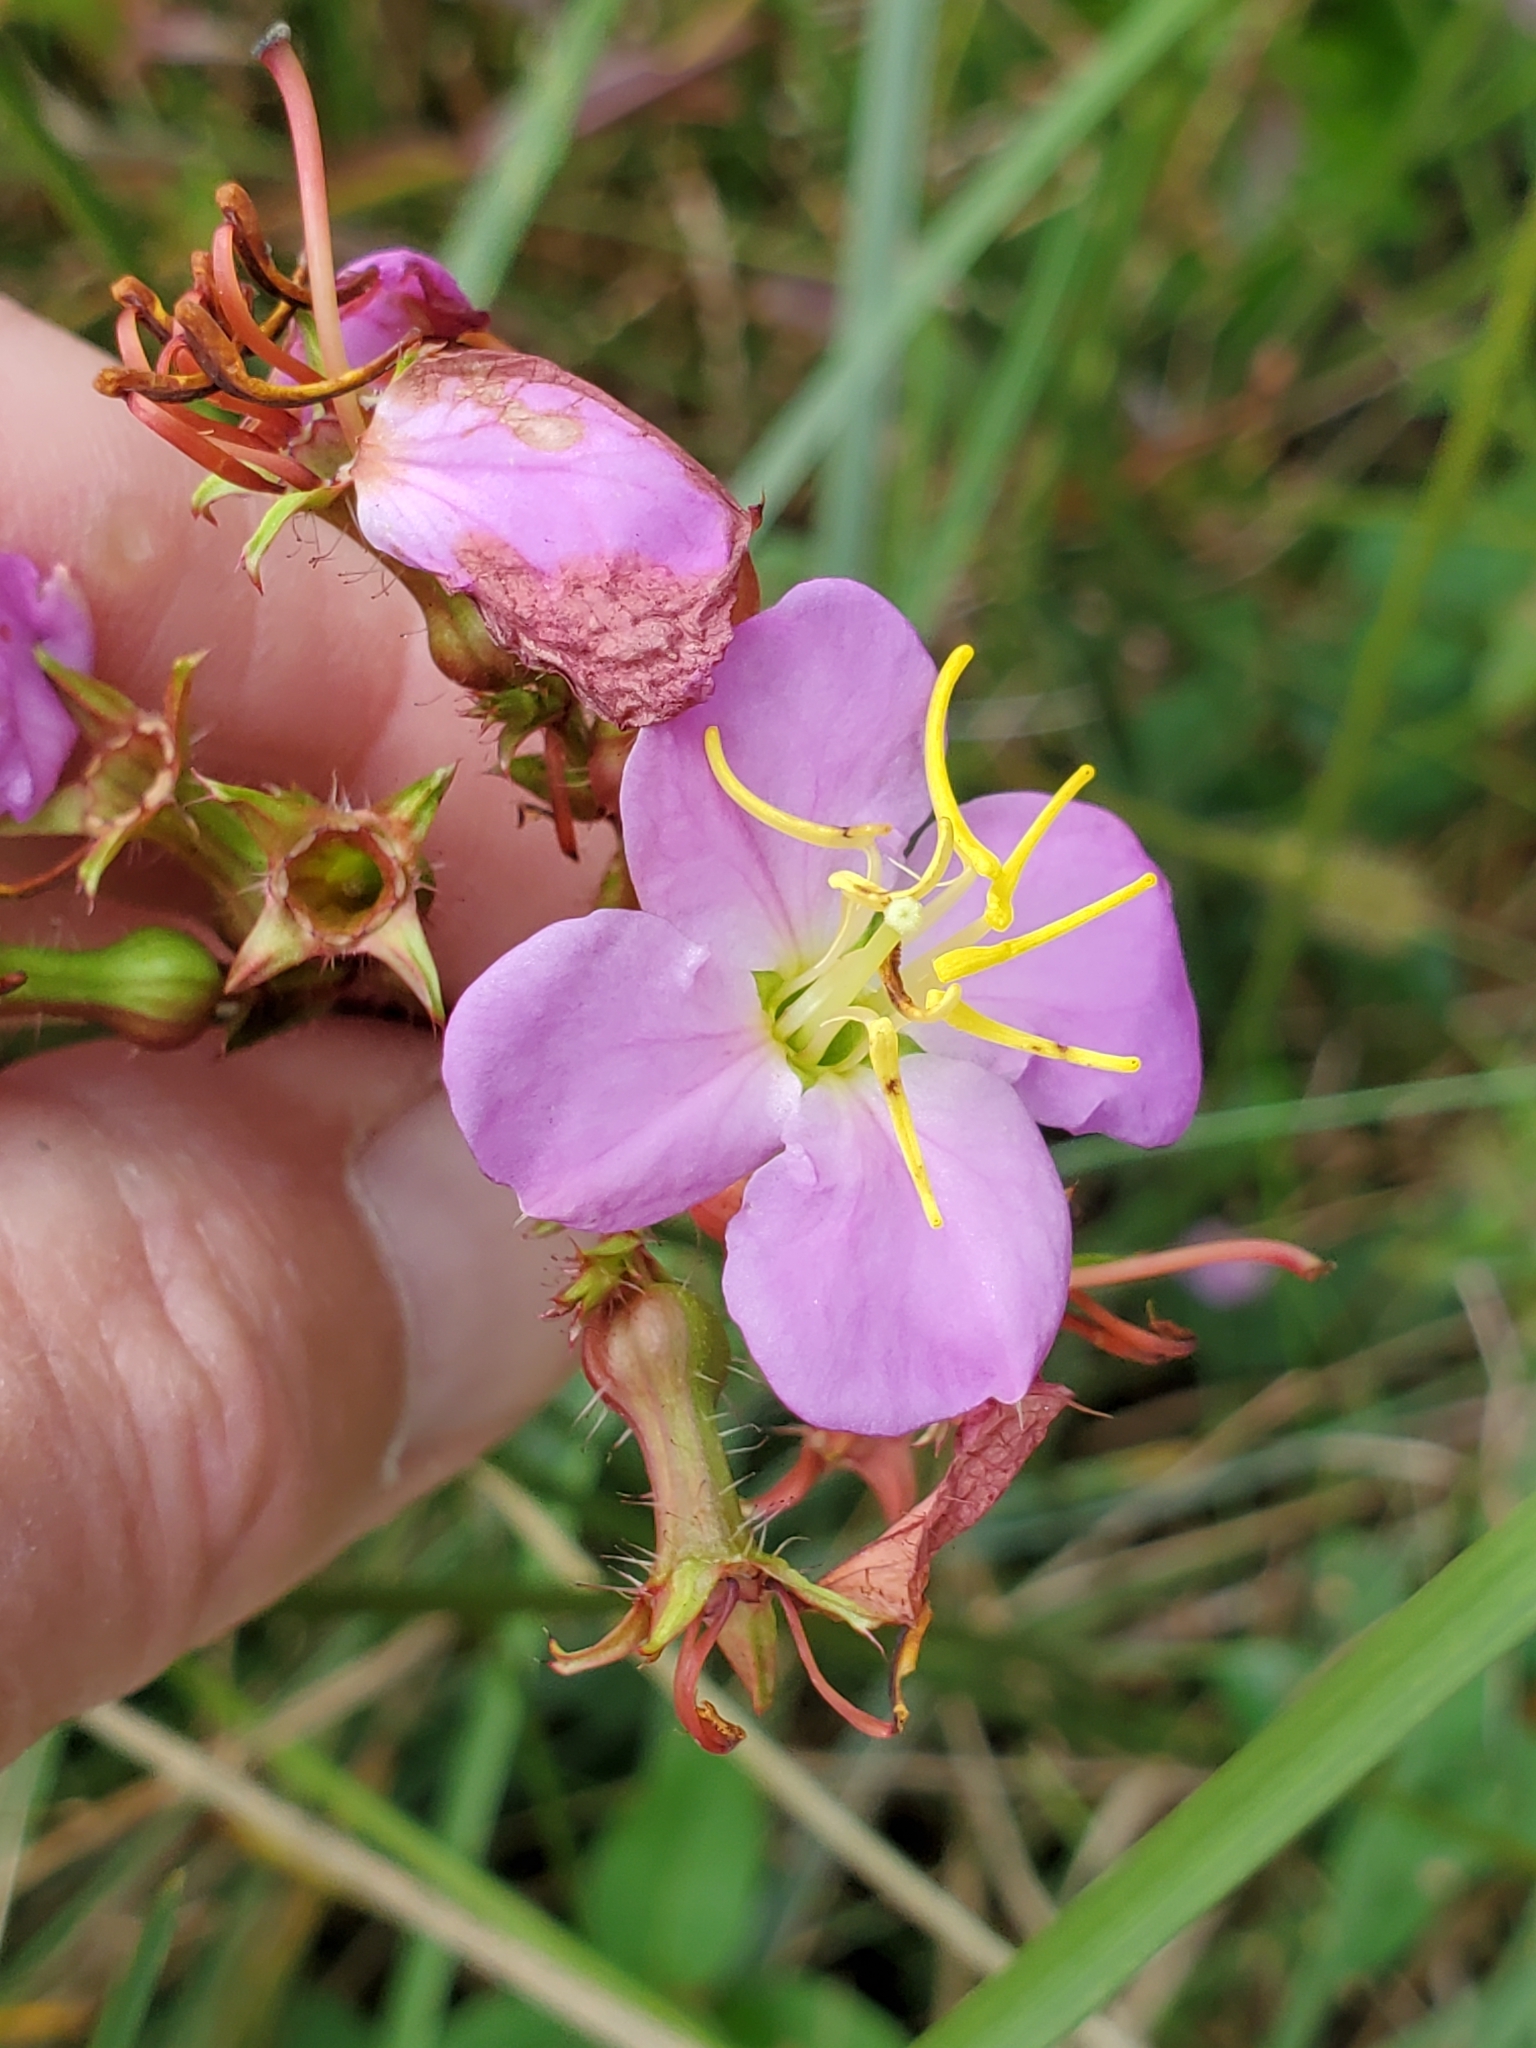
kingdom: Plantae
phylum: Tracheophyta
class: Magnoliopsida
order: Myrtales
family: Melastomataceae
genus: Rhexia
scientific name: Rhexia virginica
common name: Common meadow beauty
